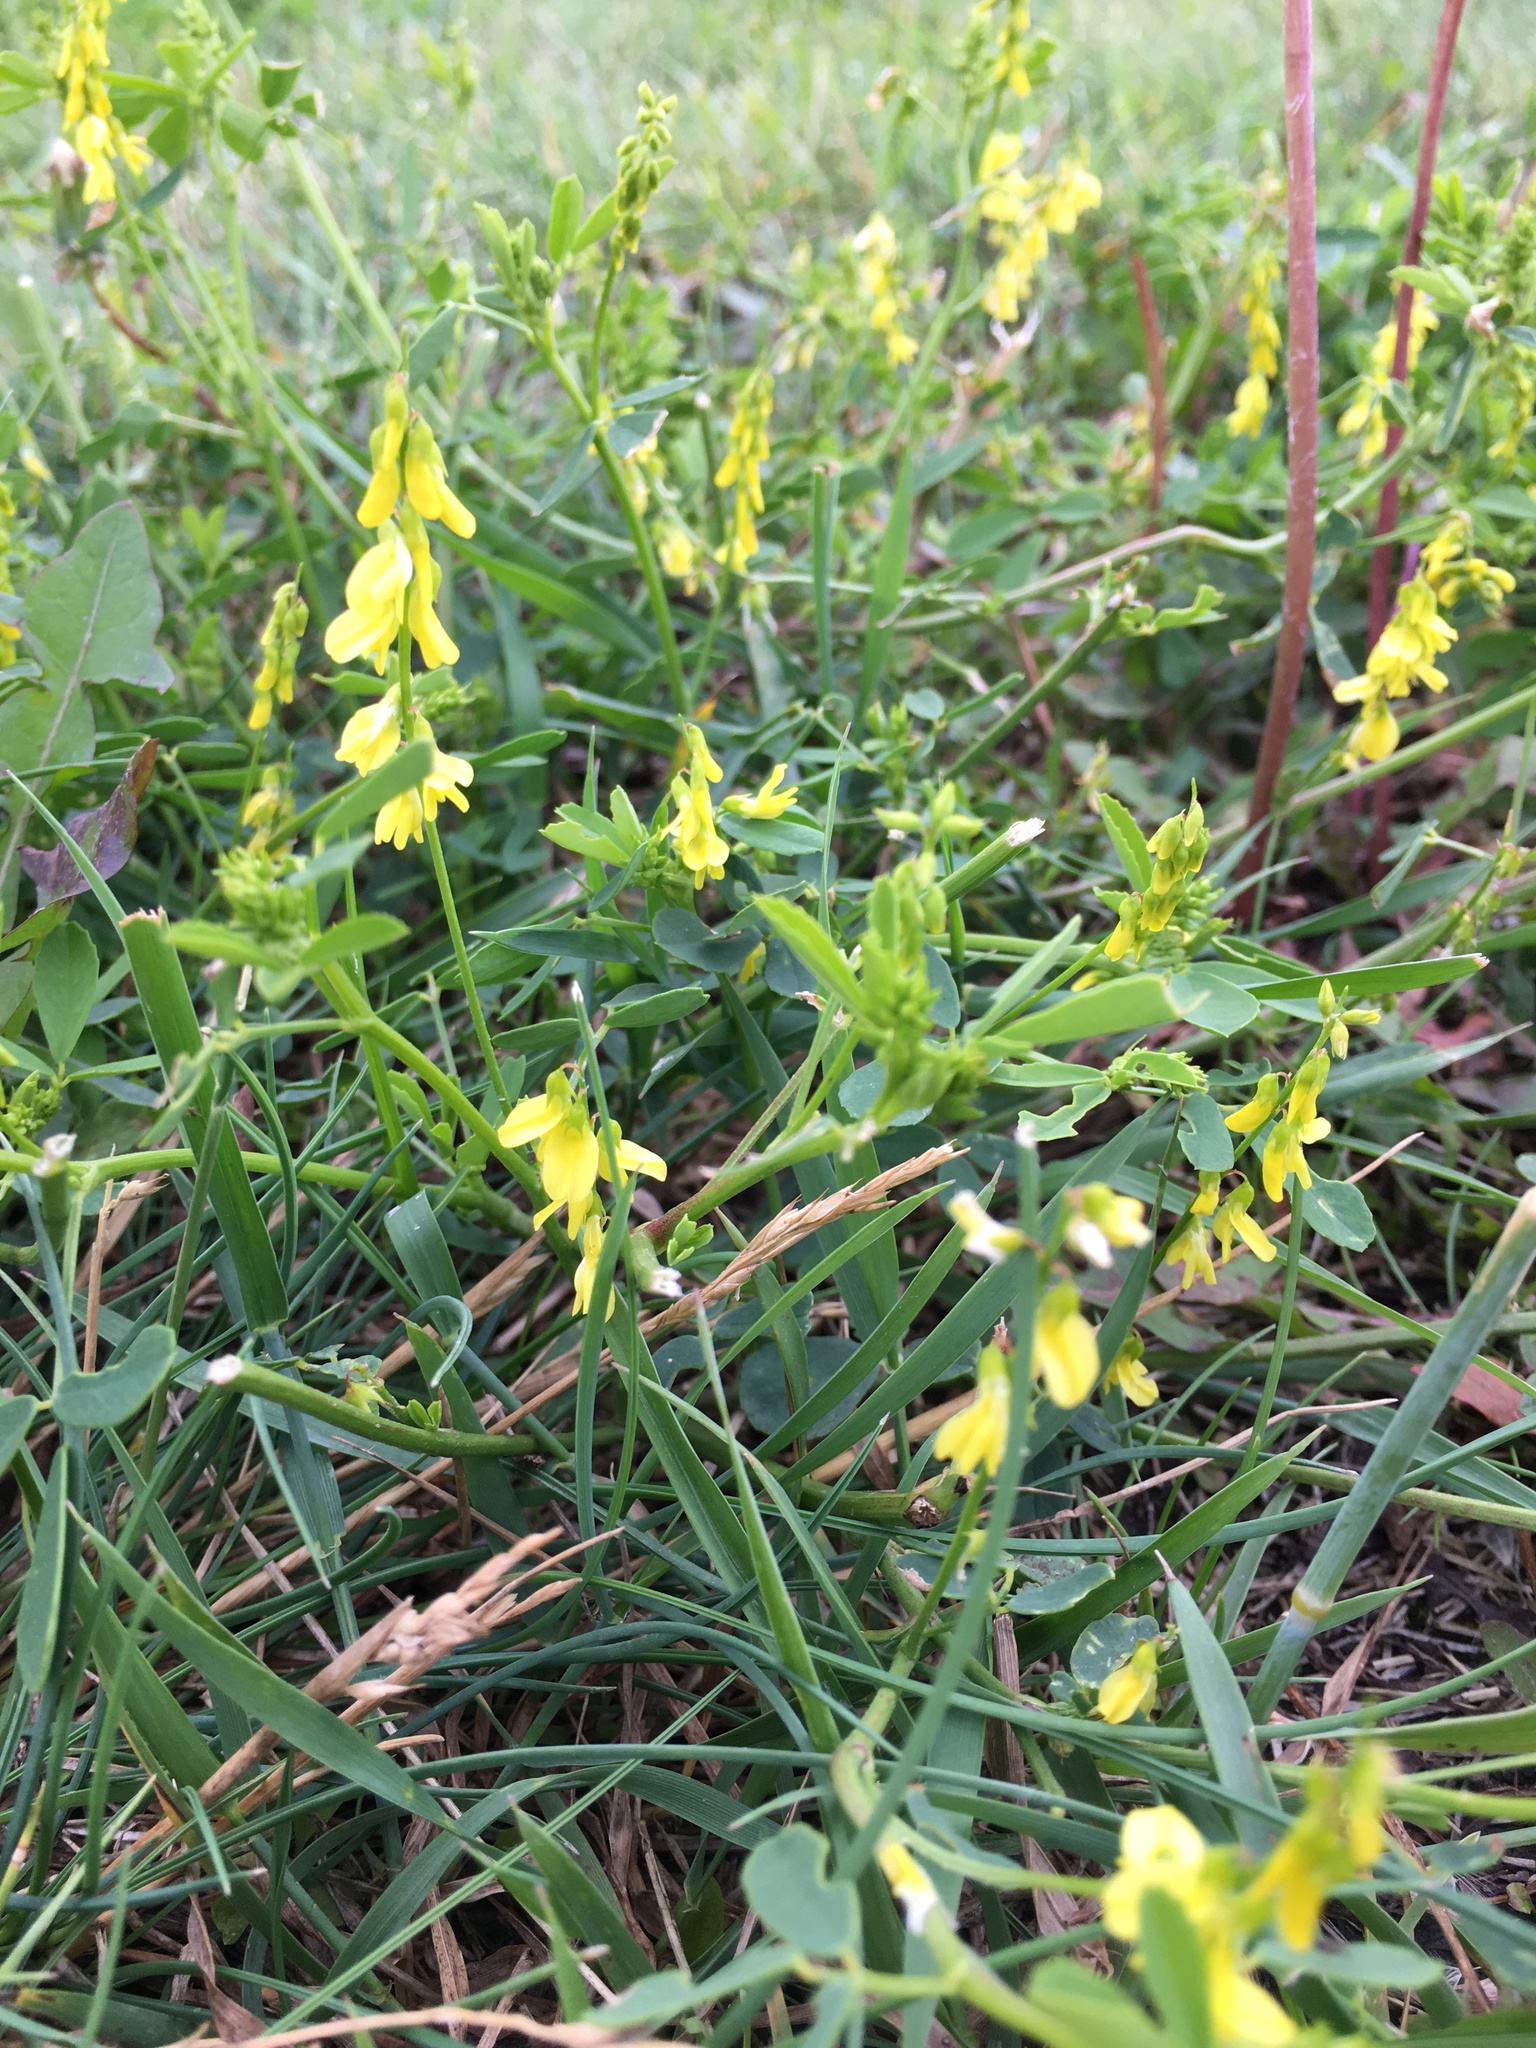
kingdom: Plantae
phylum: Tracheophyta
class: Magnoliopsida
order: Fabales
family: Fabaceae
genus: Melilotus
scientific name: Melilotus officinalis
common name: Sweetclover
